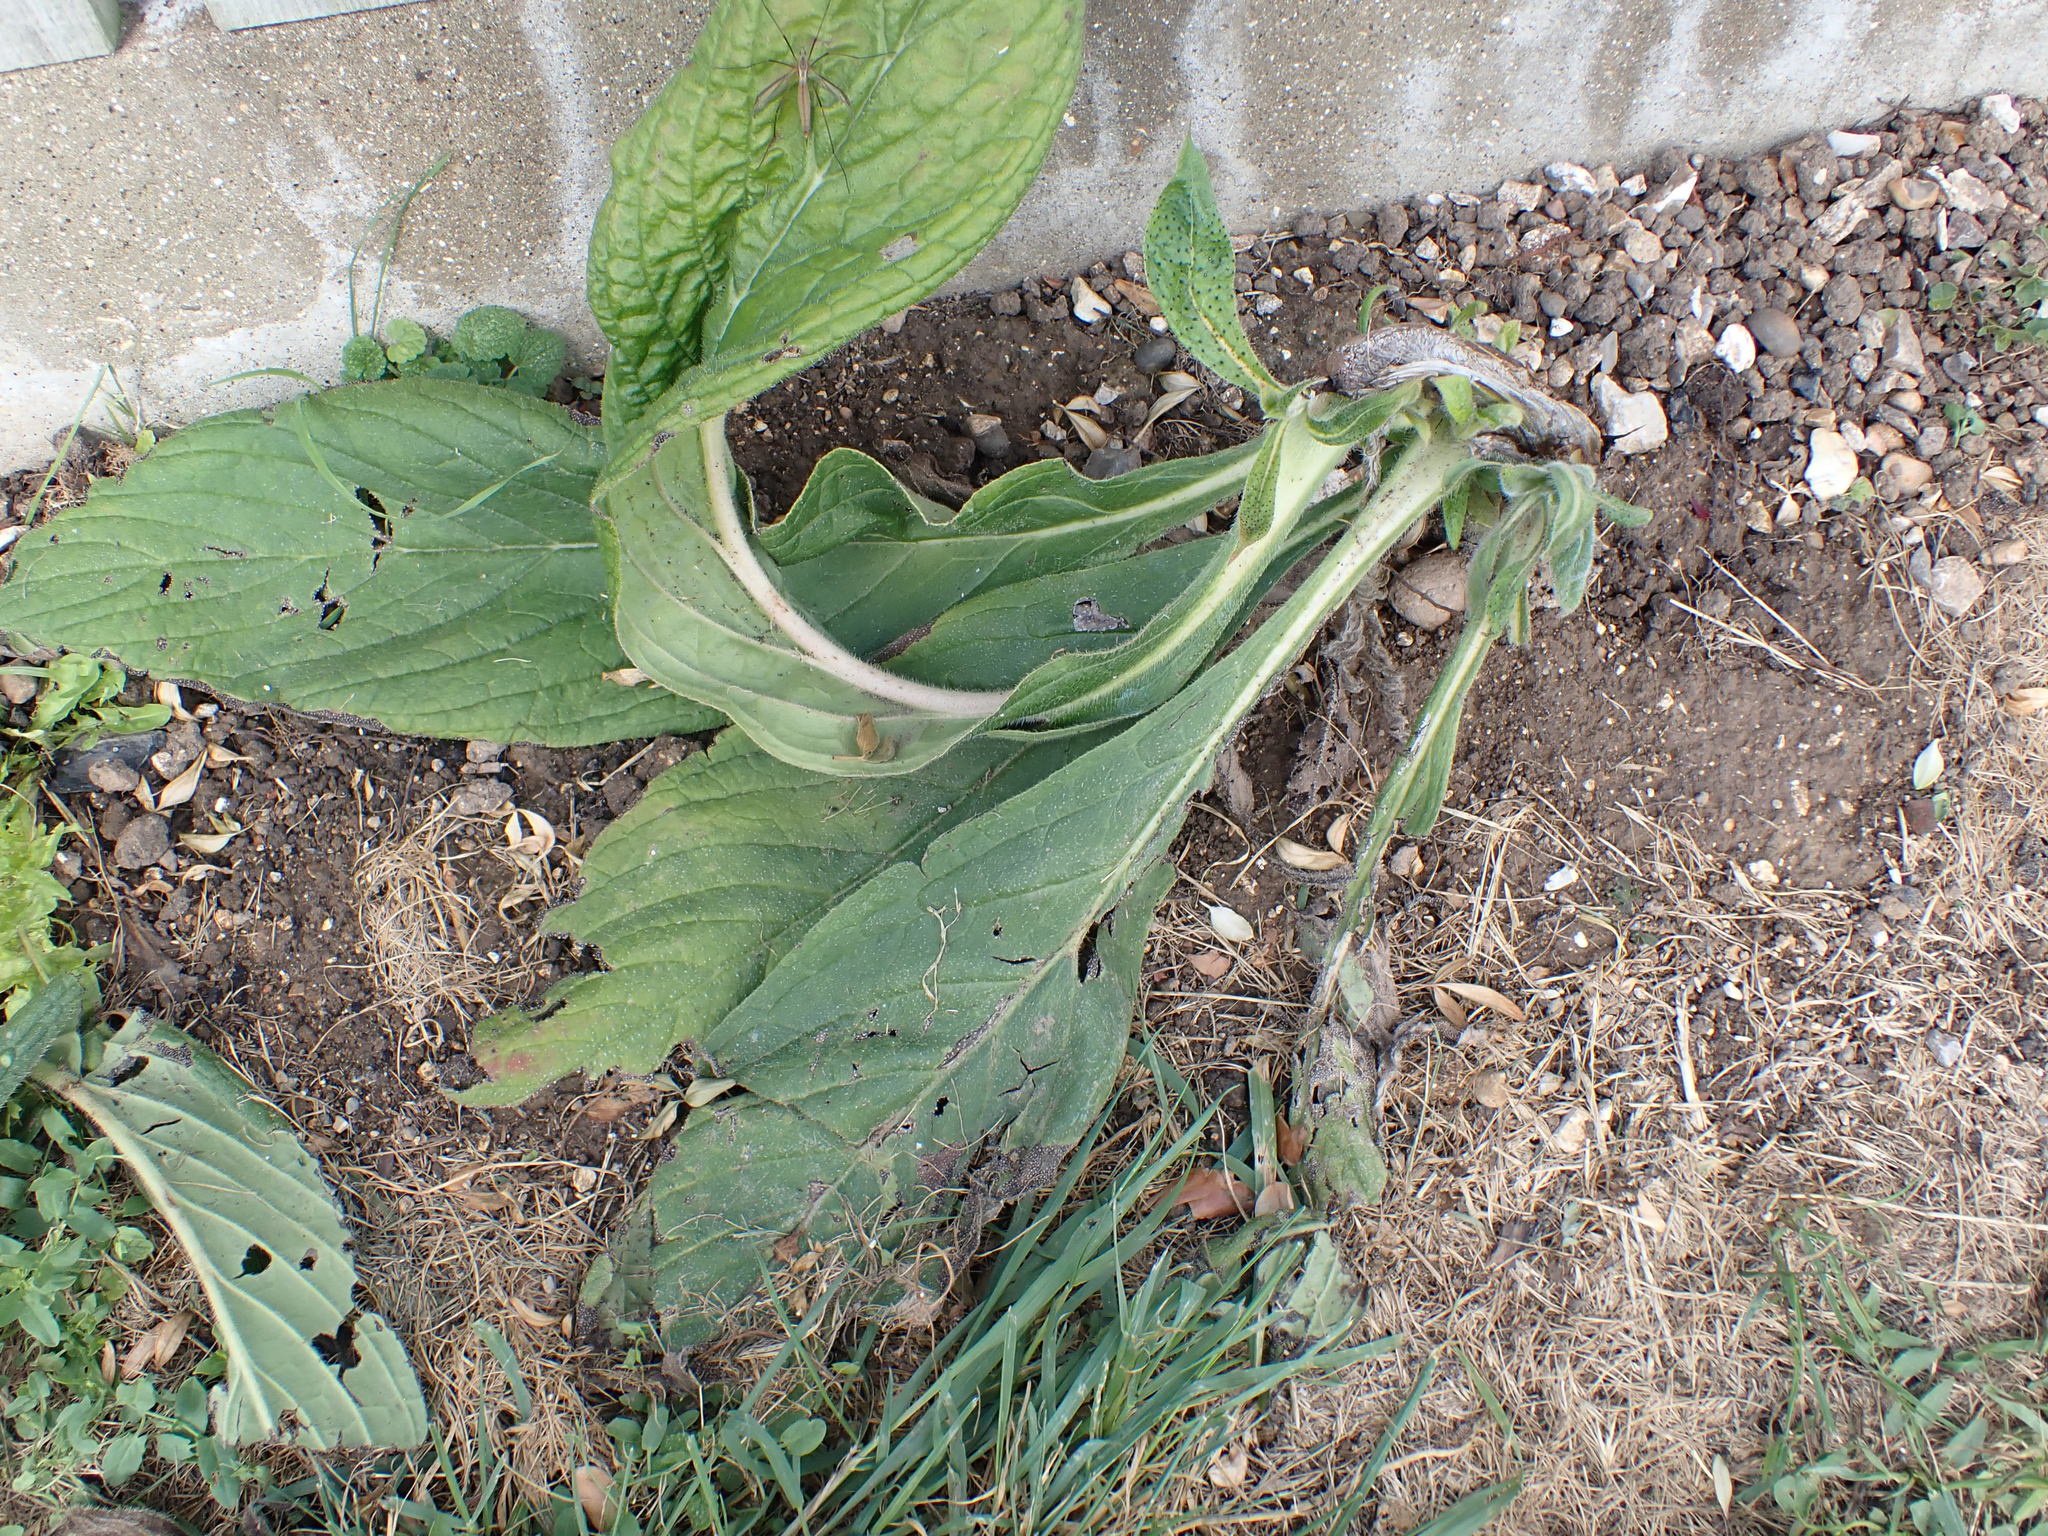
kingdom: Plantae
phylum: Tracheophyta
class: Magnoliopsida
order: Boraginales
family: Boraginaceae
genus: Echium
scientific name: Echium pininana
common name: Giant viper's-bugloss
